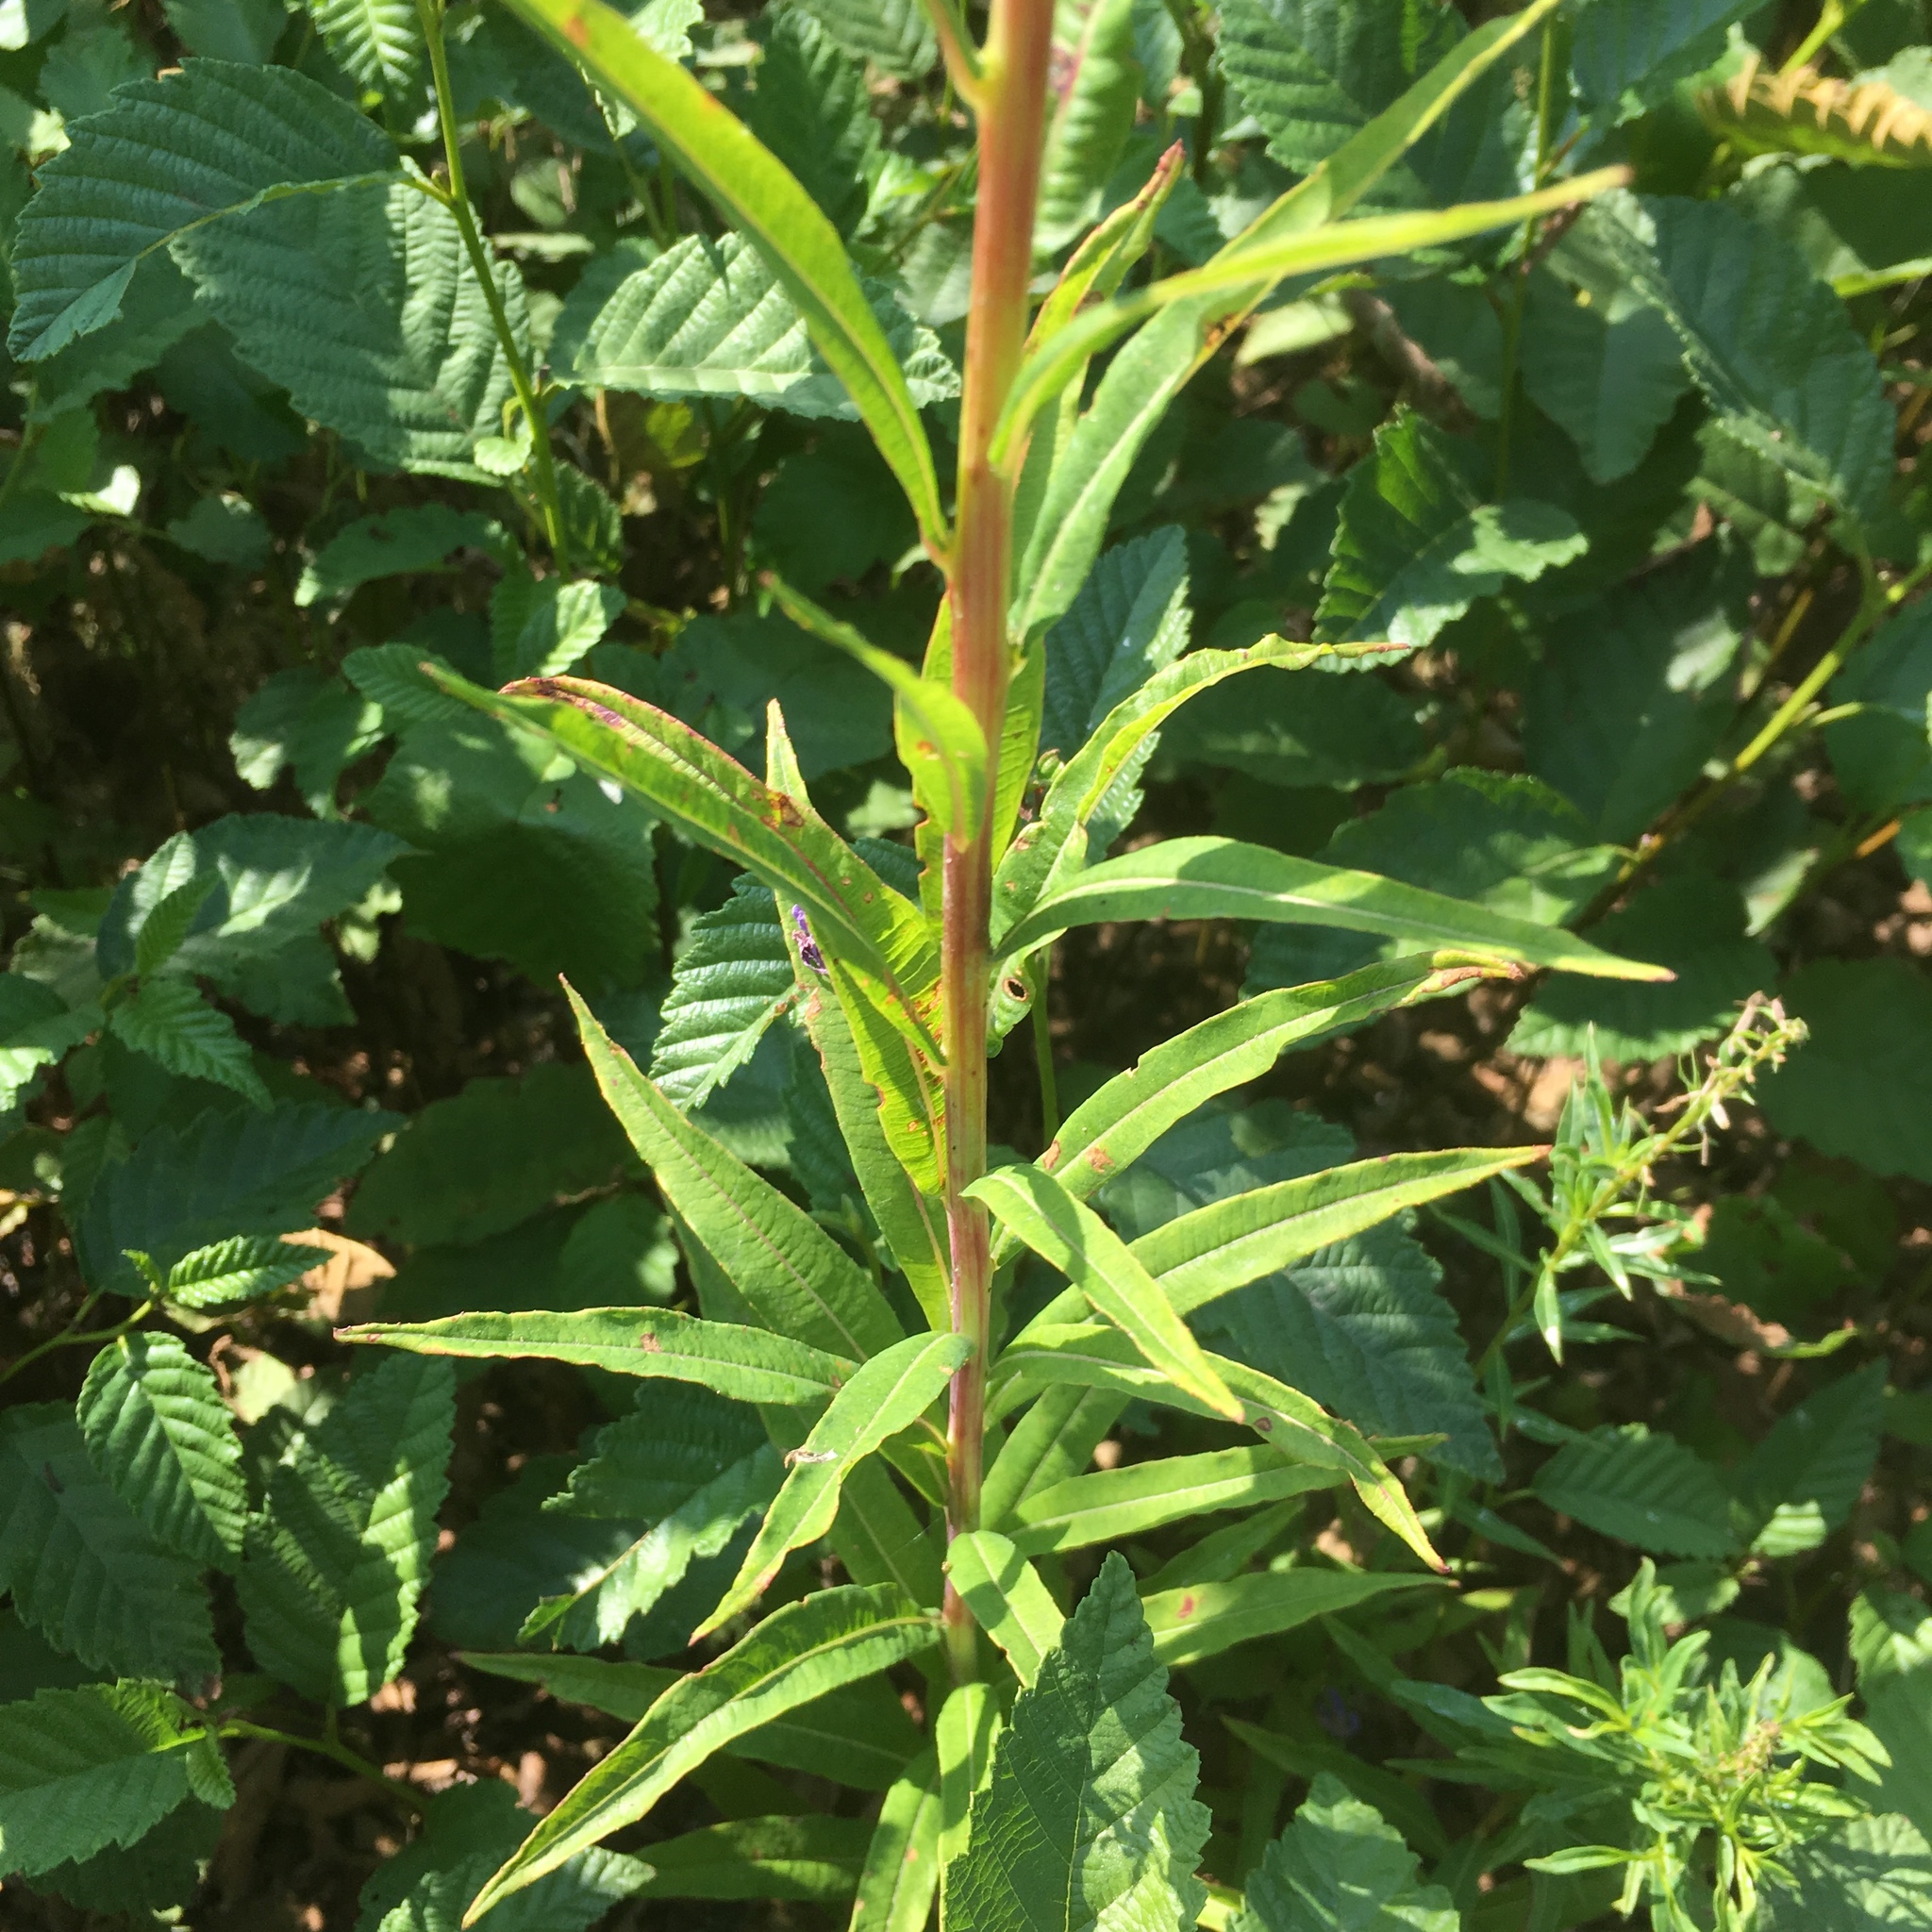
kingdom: Plantae
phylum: Tracheophyta
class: Magnoliopsida
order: Myrtales
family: Onagraceae
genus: Chamaenerion
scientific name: Chamaenerion angustifolium
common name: Fireweed
